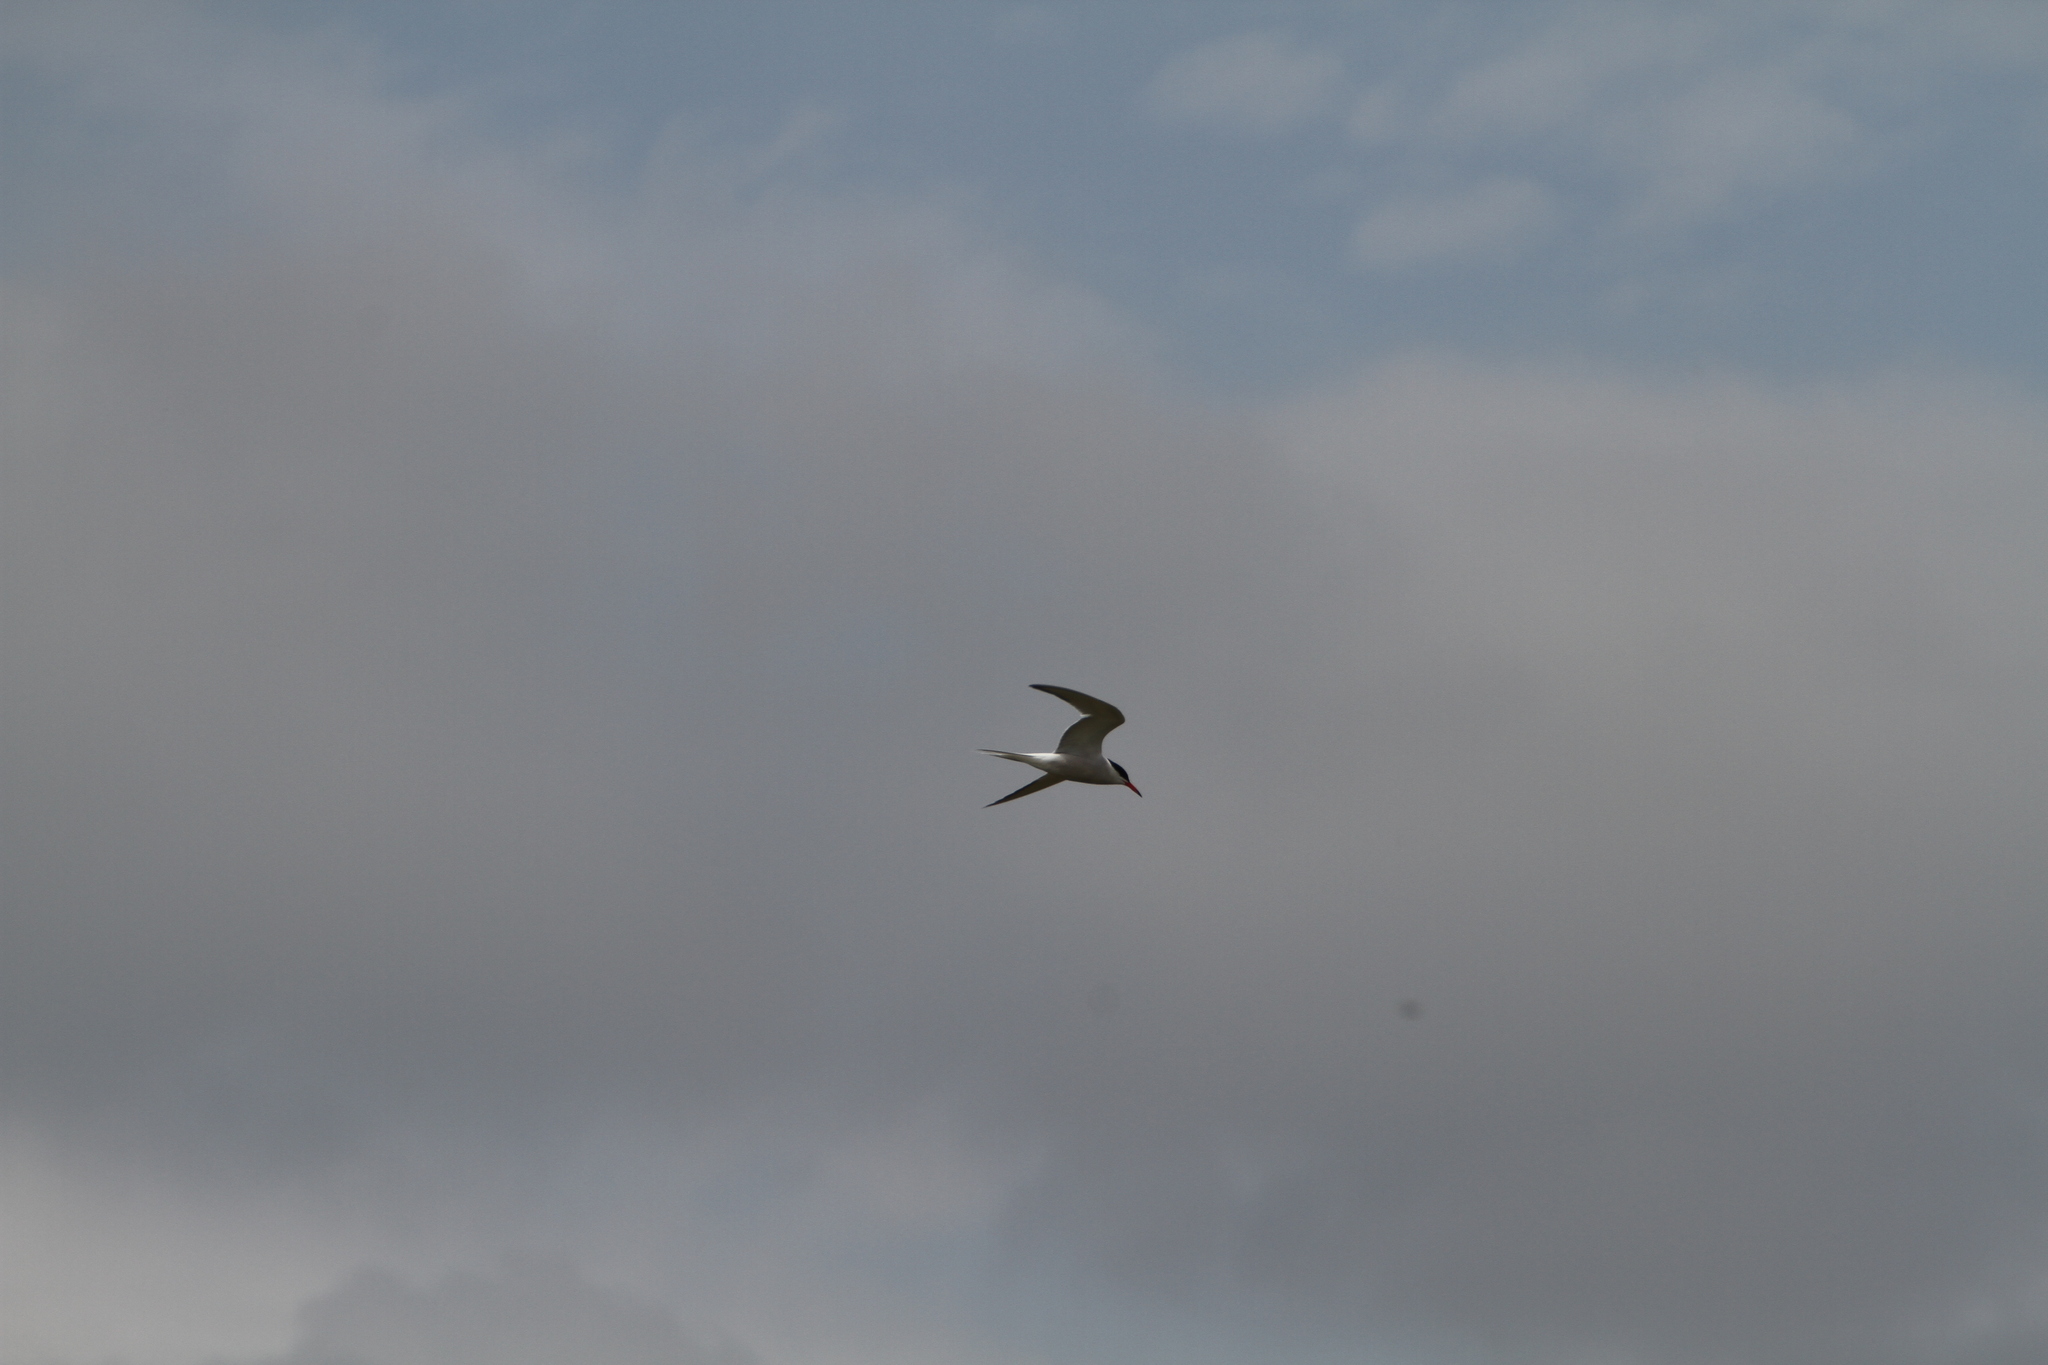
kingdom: Animalia
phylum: Chordata
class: Aves
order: Charadriiformes
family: Laridae
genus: Sterna
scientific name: Sterna hirundo
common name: Common tern
